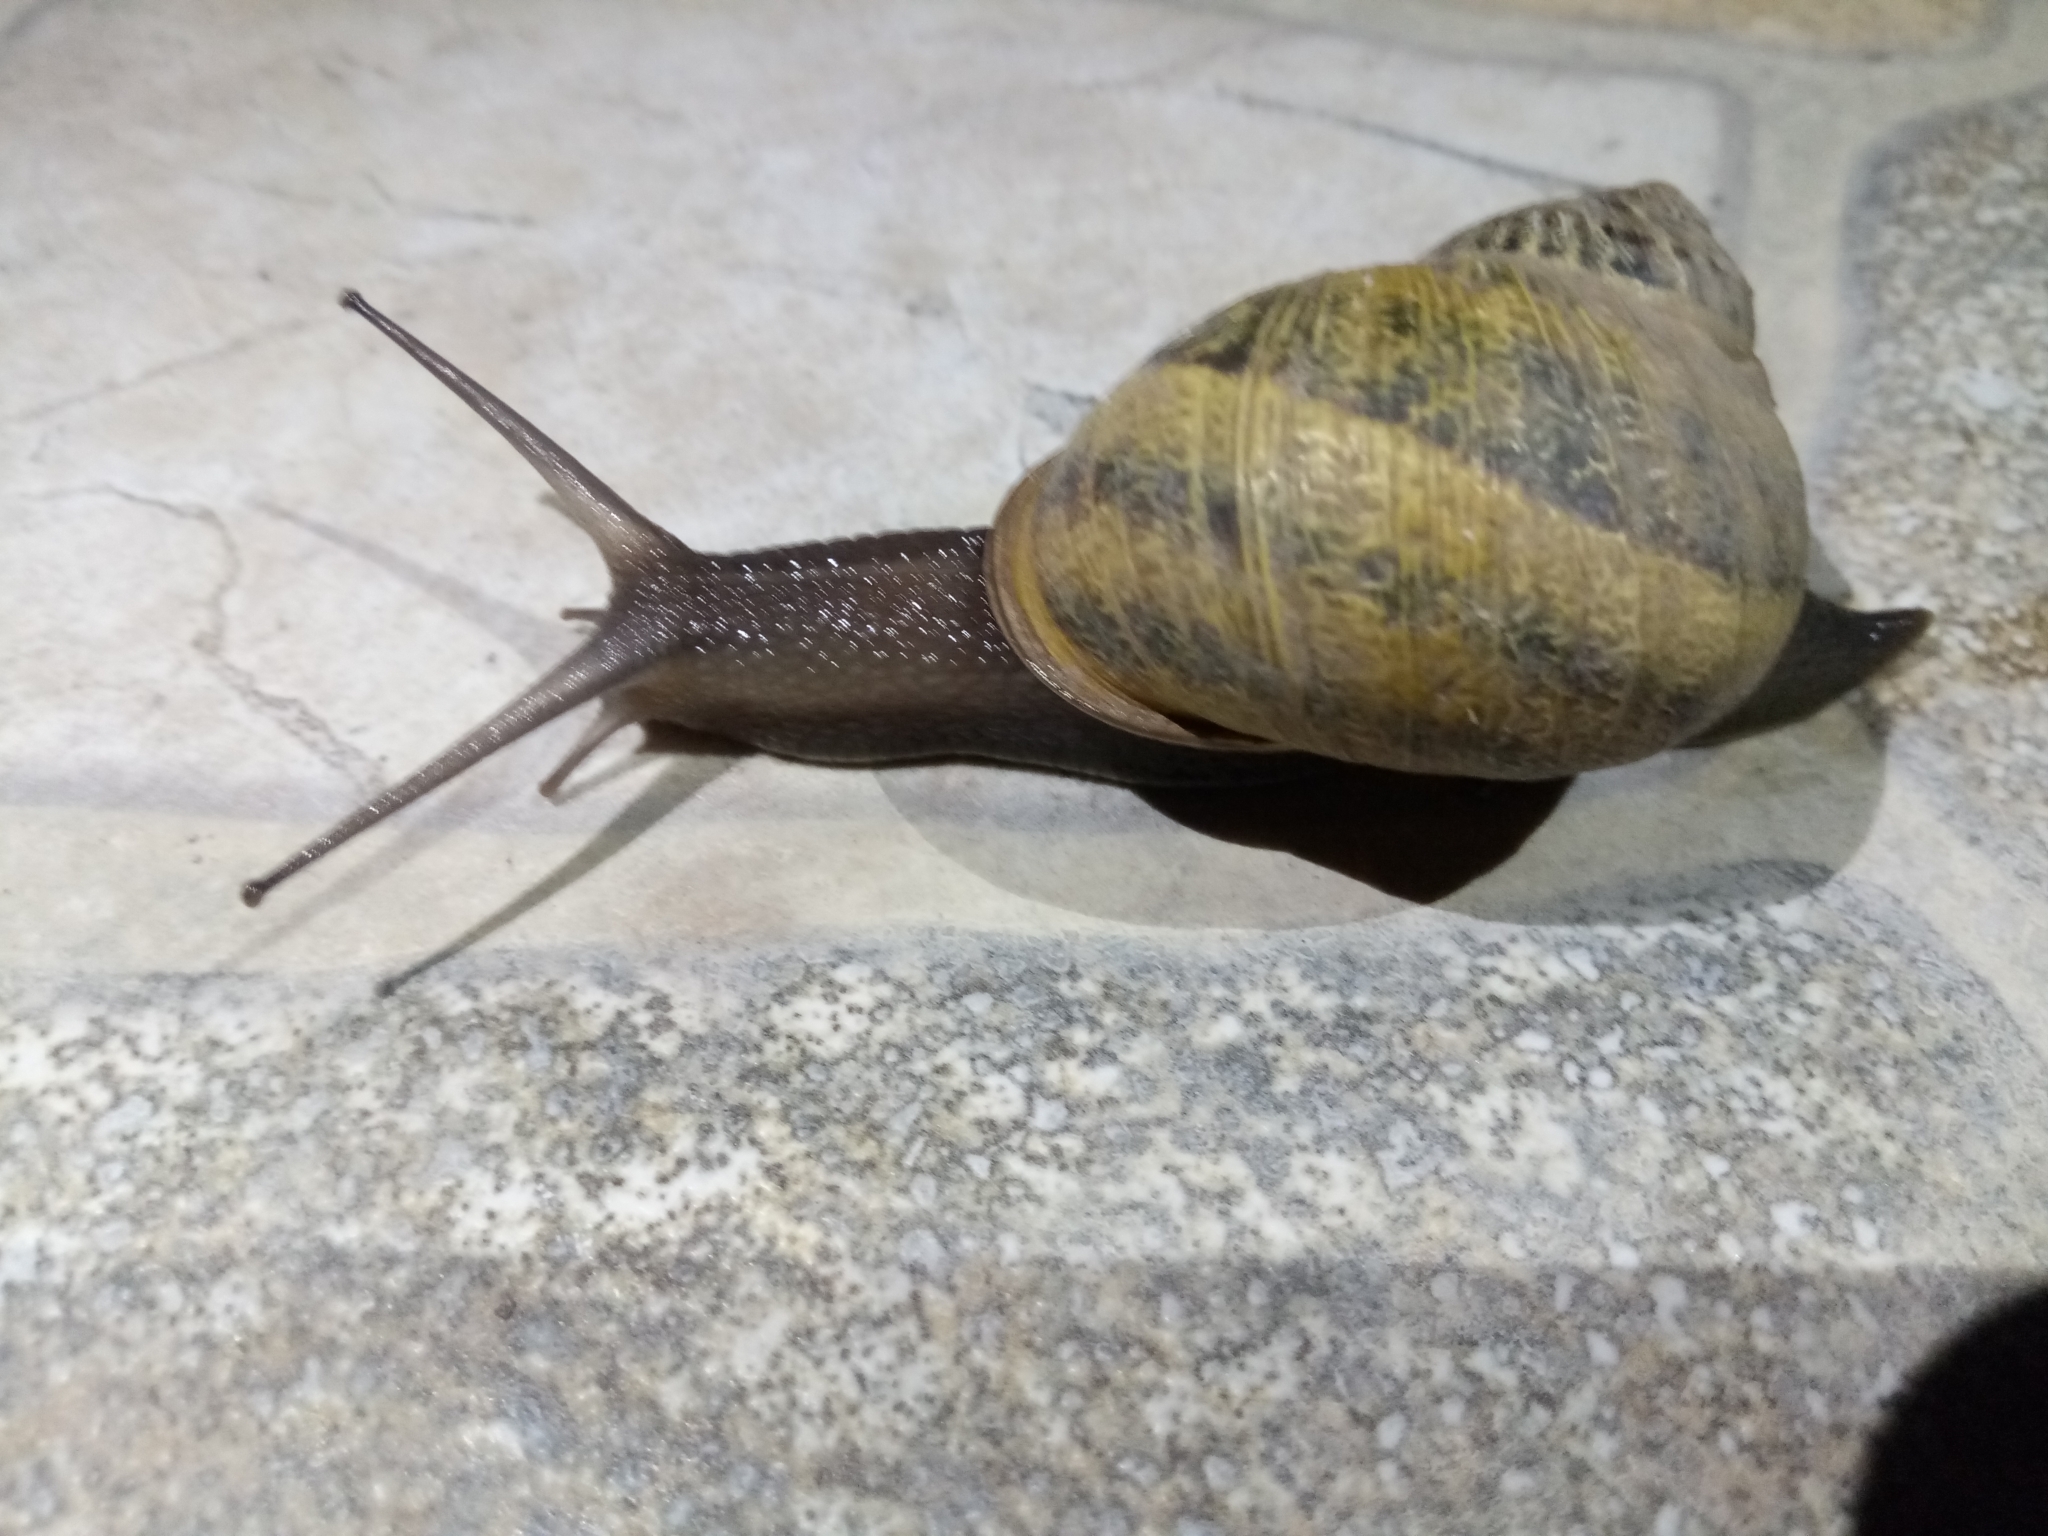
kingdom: Animalia
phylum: Mollusca
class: Gastropoda
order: Stylommatophora
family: Helicidae
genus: Cornu
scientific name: Cornu aspersum
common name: Brown garden snail
